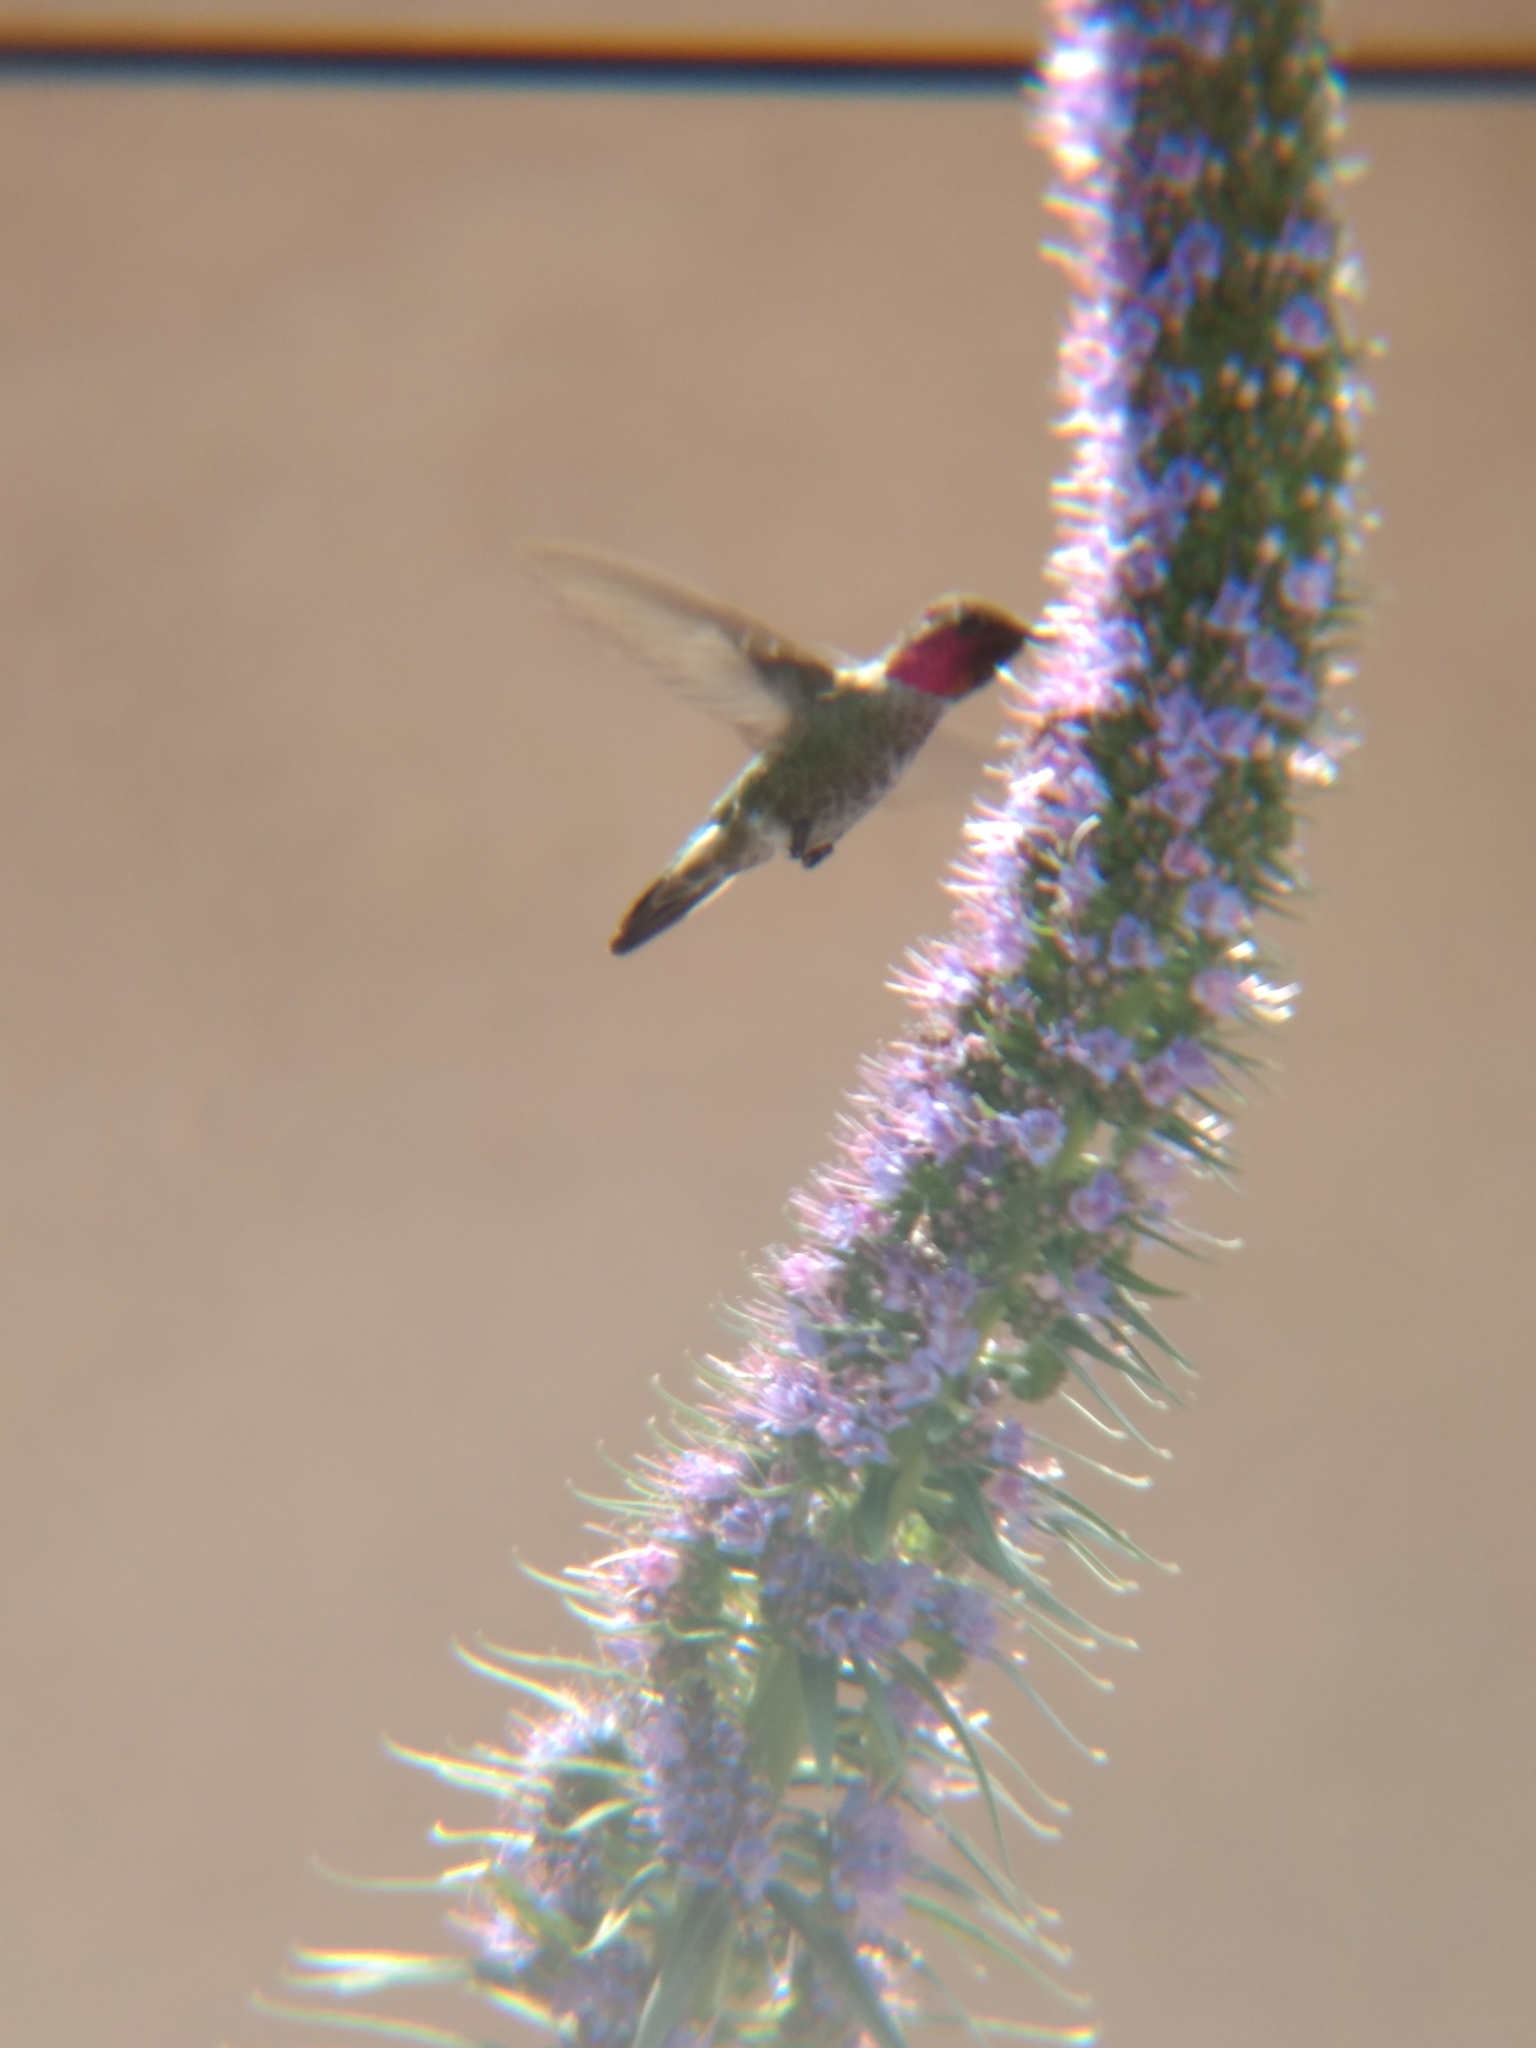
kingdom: Animalia
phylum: Chordata
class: Aves
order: Apodiformes
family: Trochilidae
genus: Calypte
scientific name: Calypte anna
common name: Anna's hummingbird
